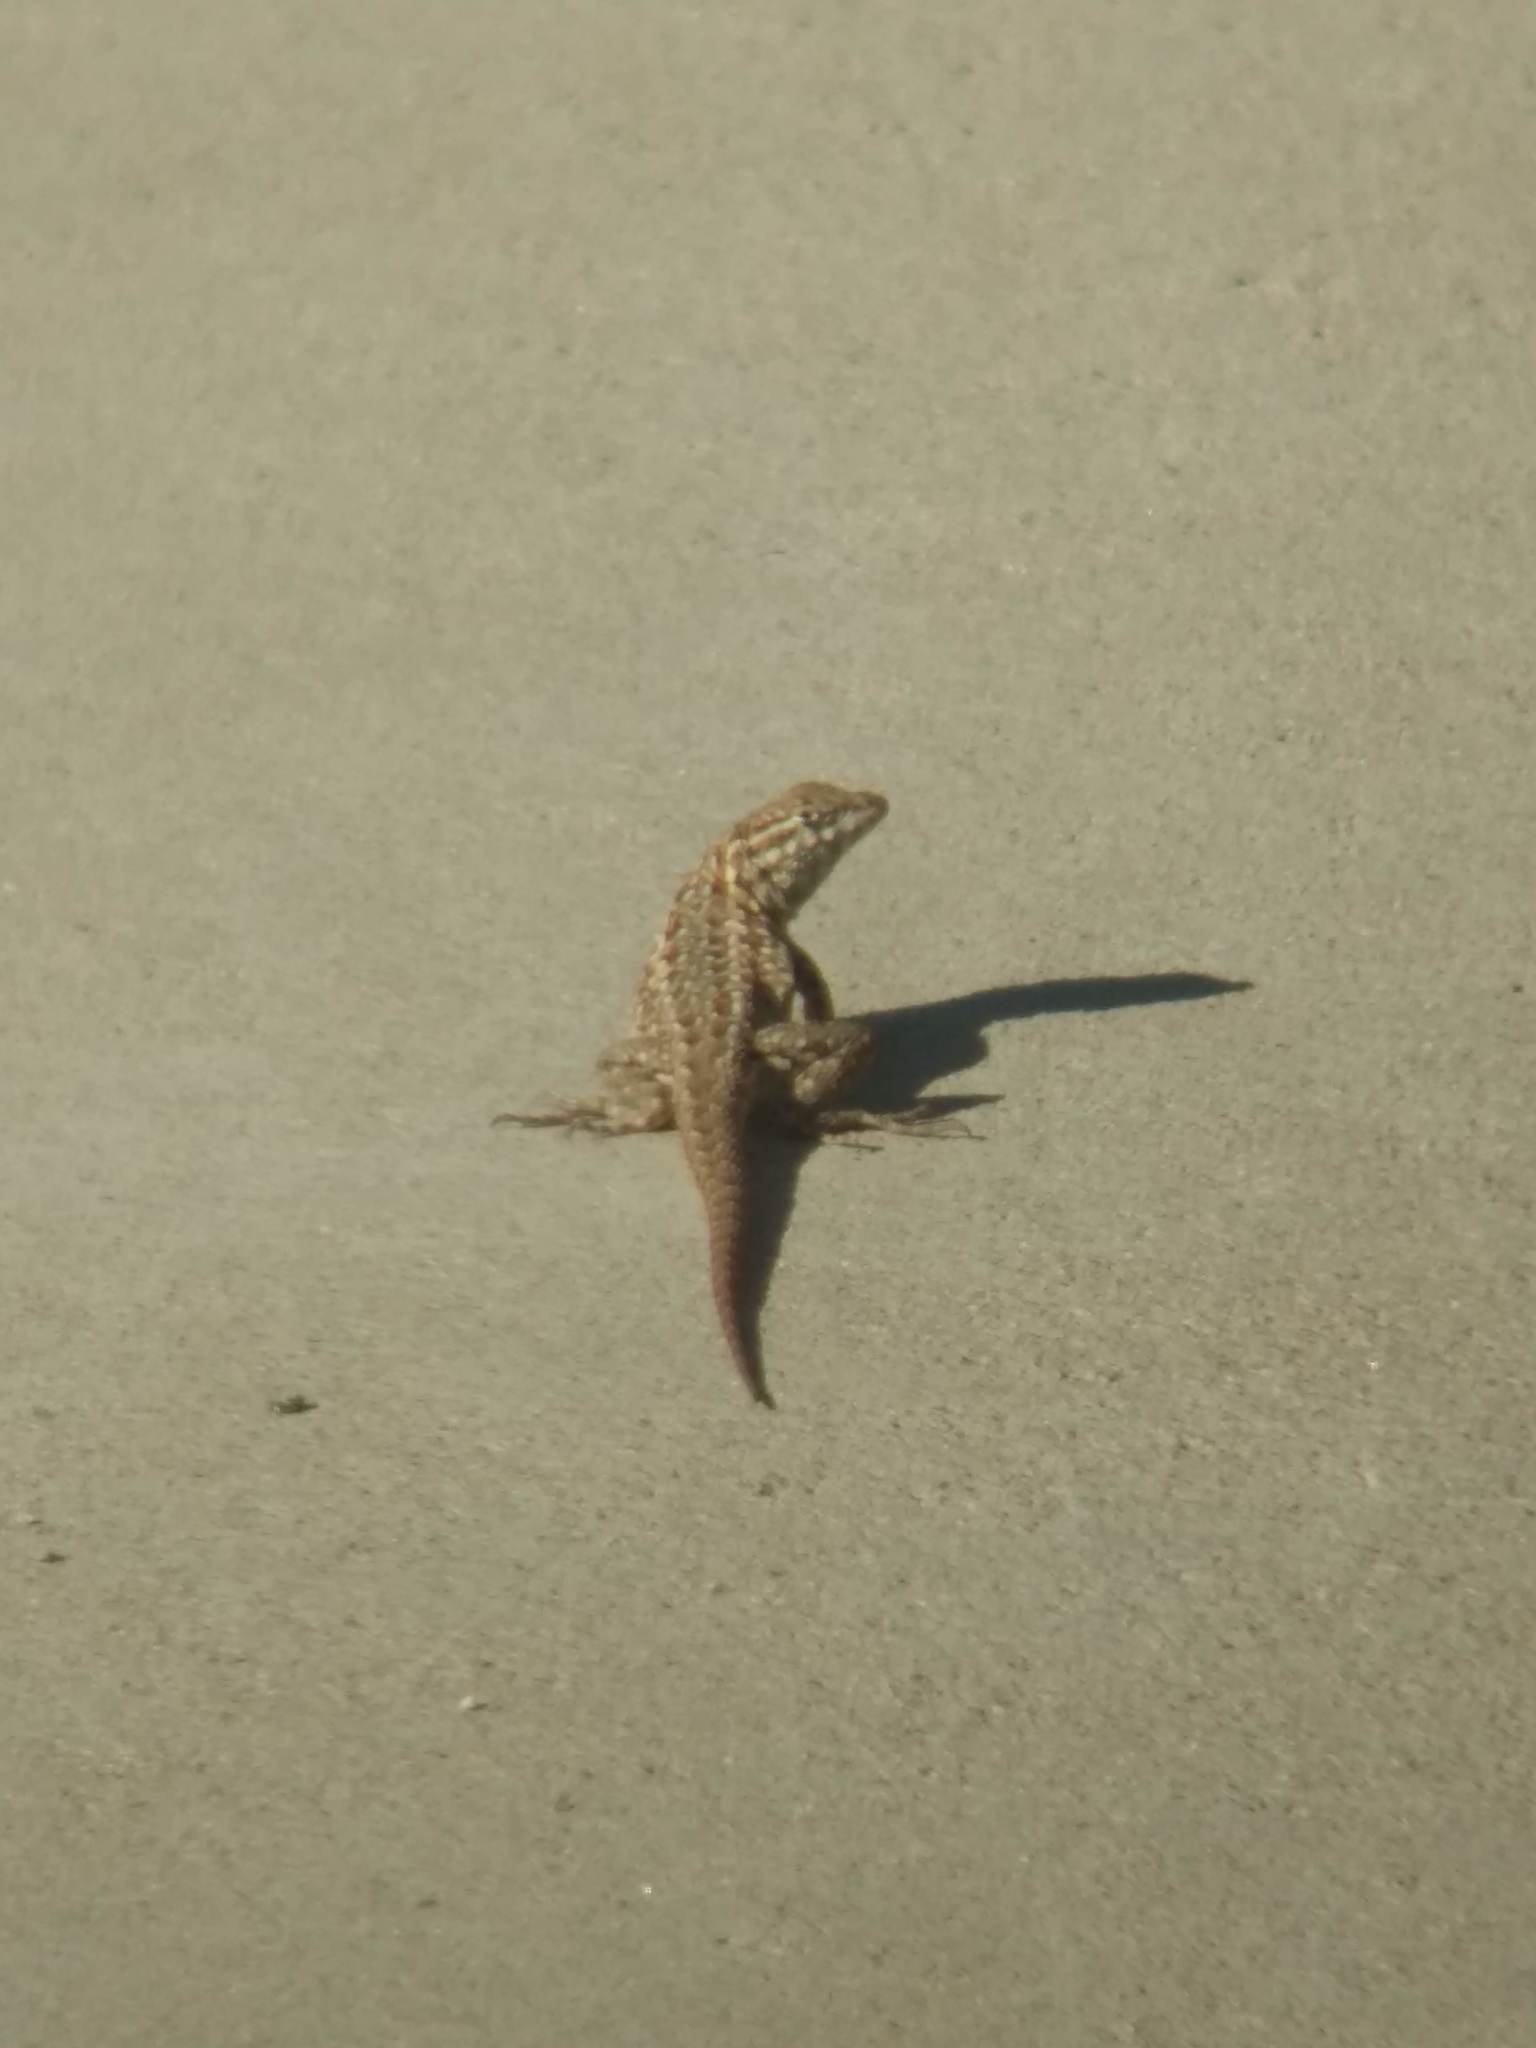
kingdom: Animalia
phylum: Chordata
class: Squamata
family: Phrynosomatidae
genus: Uta
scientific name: Uta stansburiana
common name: Side-blotched lizard
